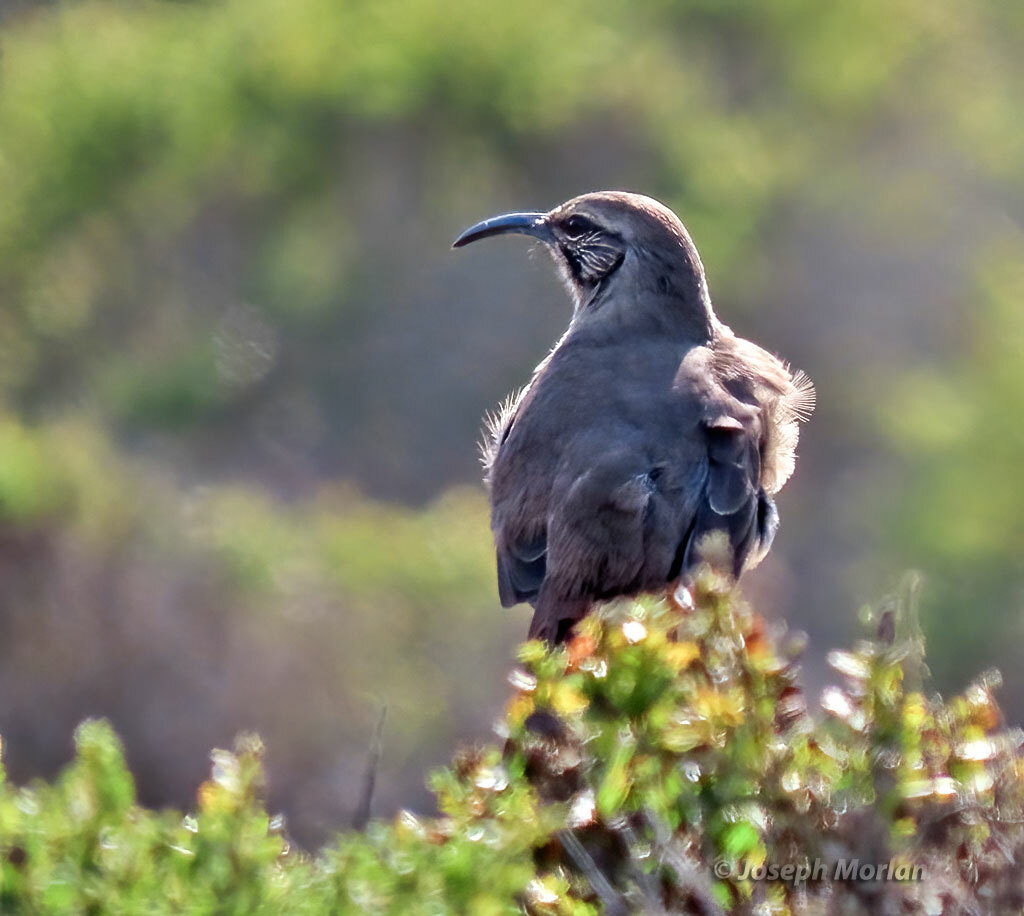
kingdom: Animalia
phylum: Chordata
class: Aves
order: Passeriformes
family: Mimidae
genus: Toxostoma
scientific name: Toxostoma redivivum
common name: California thrasher
